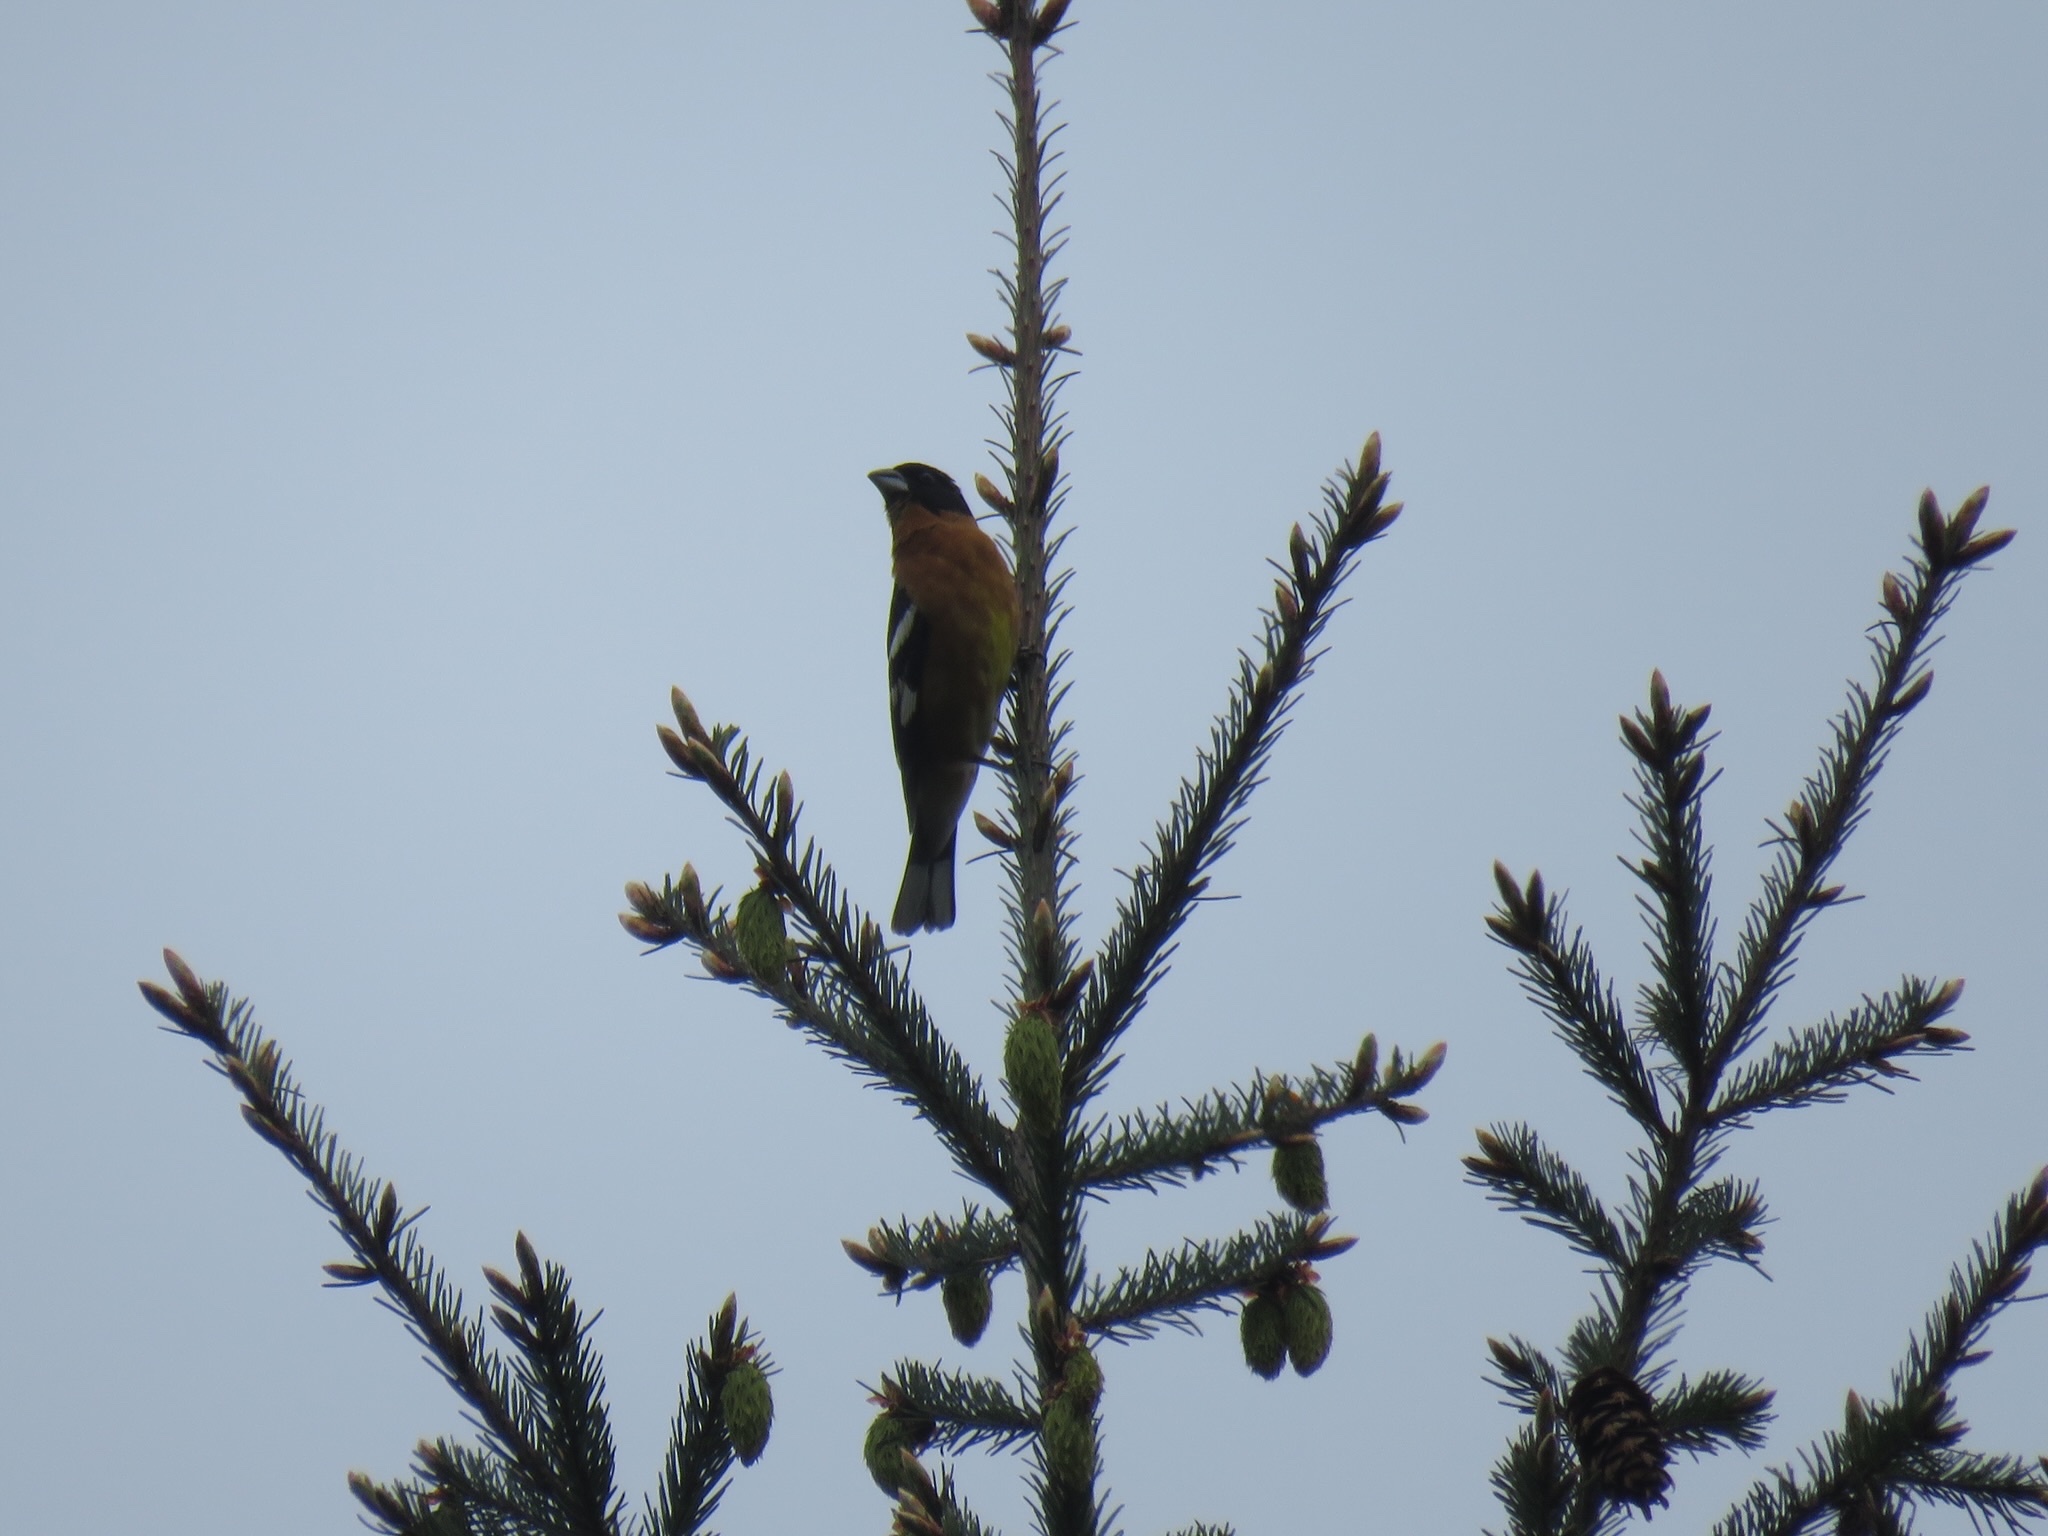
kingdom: Animalia
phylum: Chordata
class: Aves
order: Passeriformes
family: Cardinalidae
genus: Pheucticus
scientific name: Pheucticus melanocephalus
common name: Black-headed grosbeak
